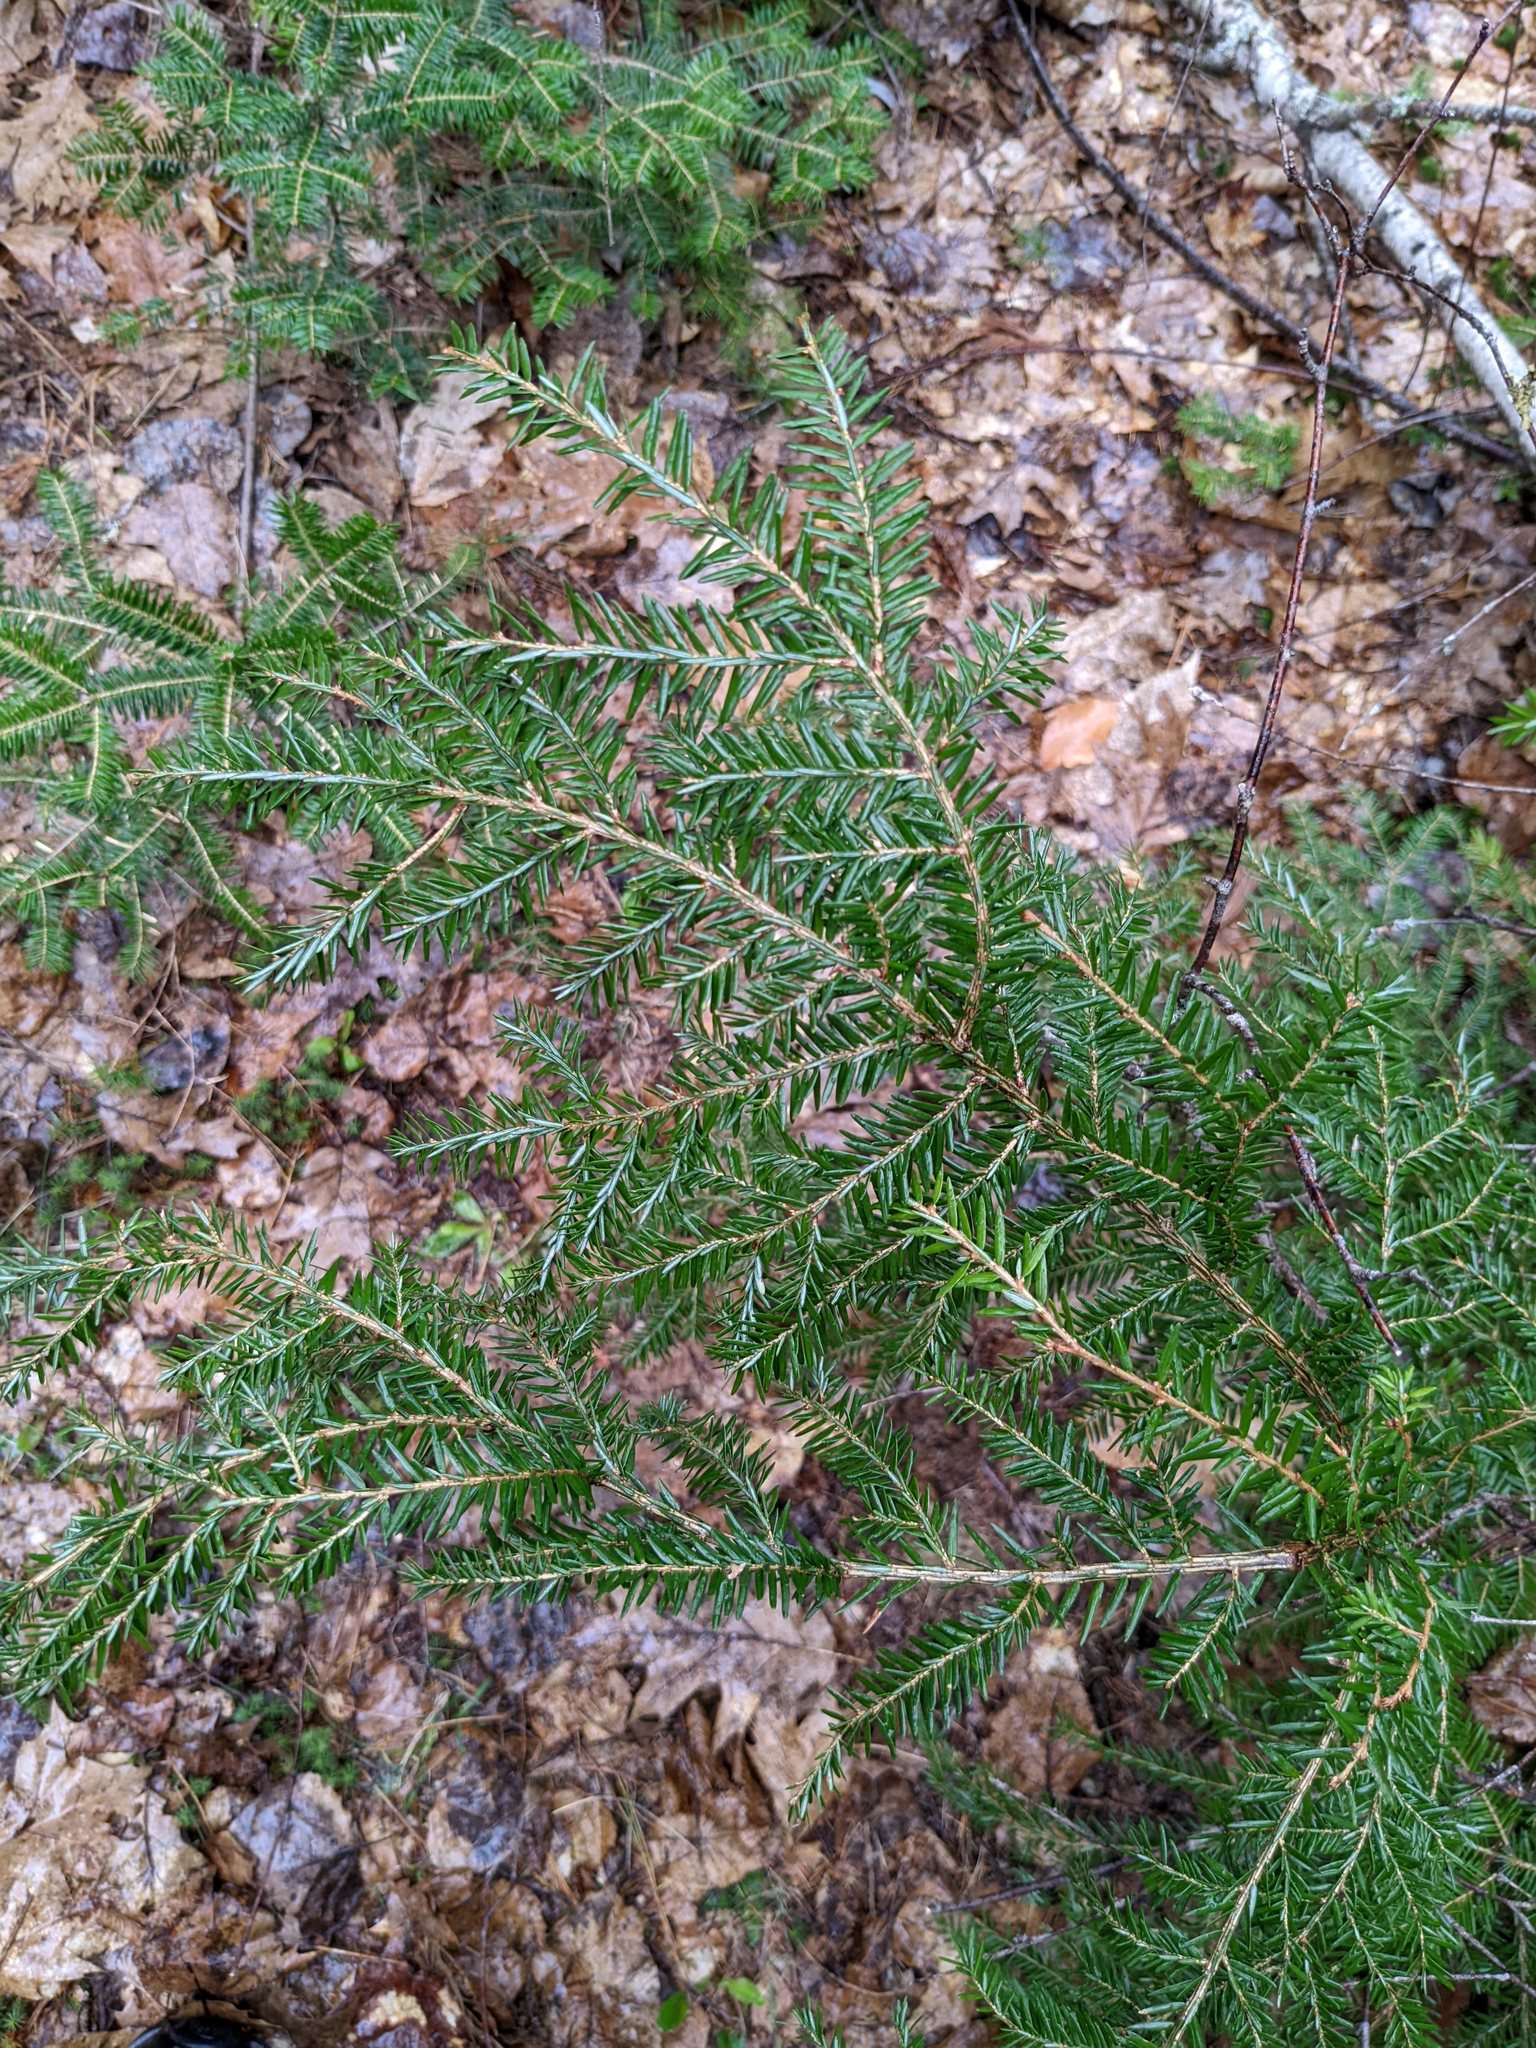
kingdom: Plantae
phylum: Tracheophyta
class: Pinopsida
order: Pinales
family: Pinaceae
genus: Tsuga
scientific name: Tsuga canadensis
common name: Eastern hemlock
